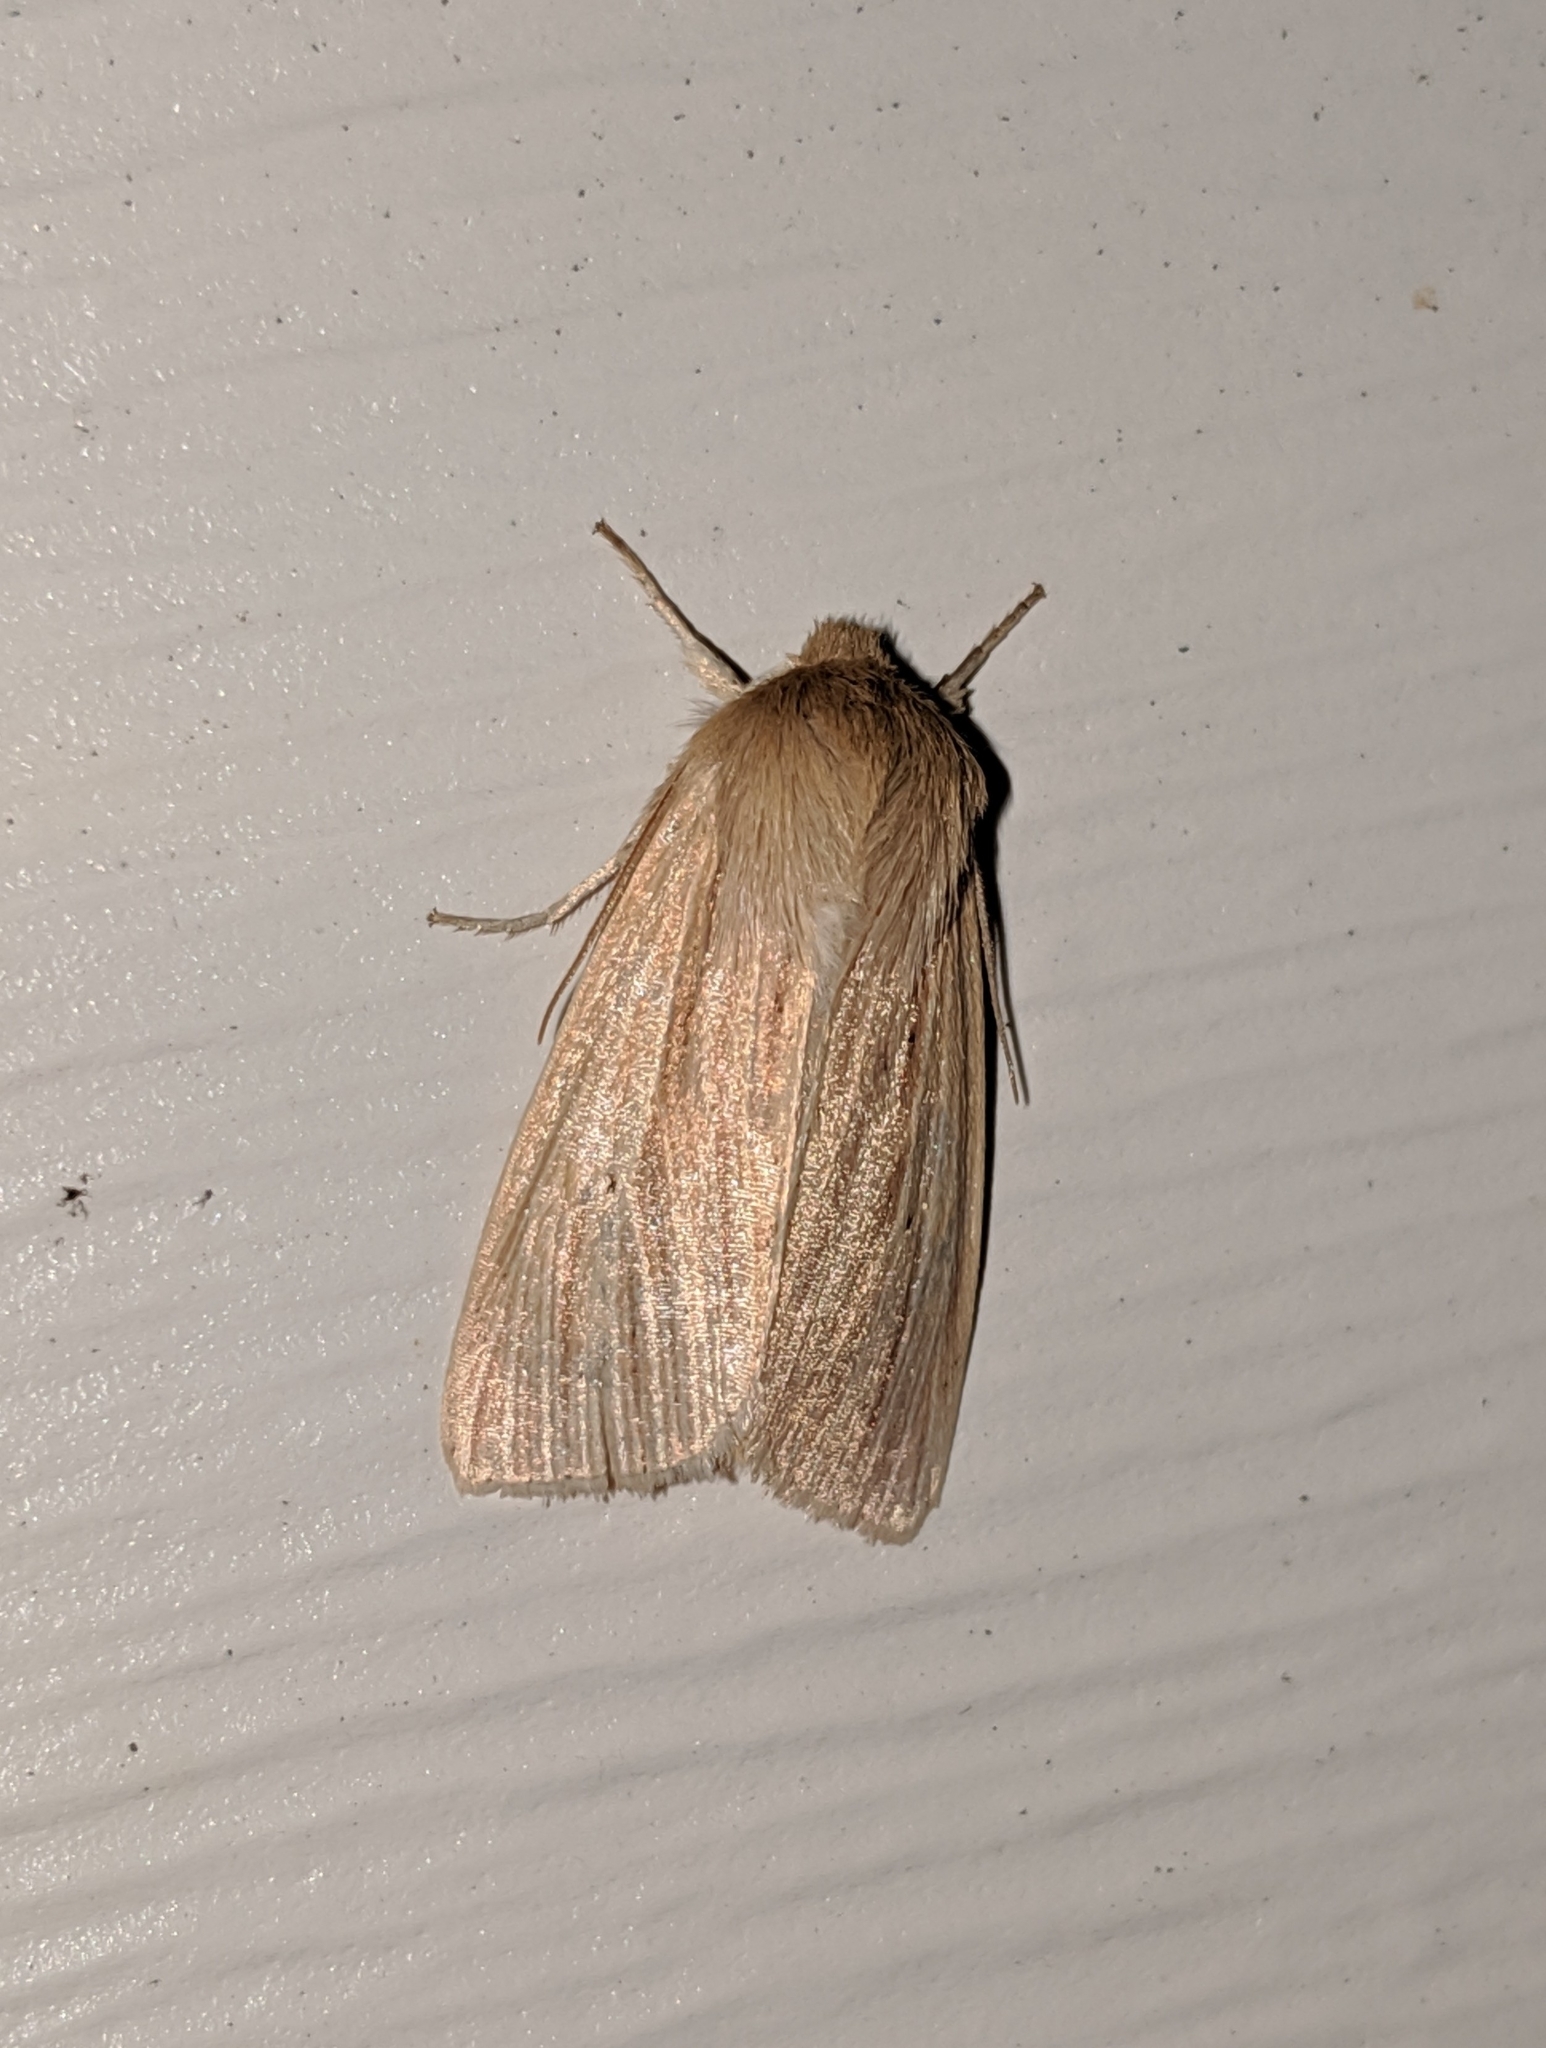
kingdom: Animalia
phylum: Arthropoda
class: Insecta
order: Lepidoptera
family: Noctuidae
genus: Mythimna
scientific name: Mythimna oxygala
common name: Lesser wainscot
